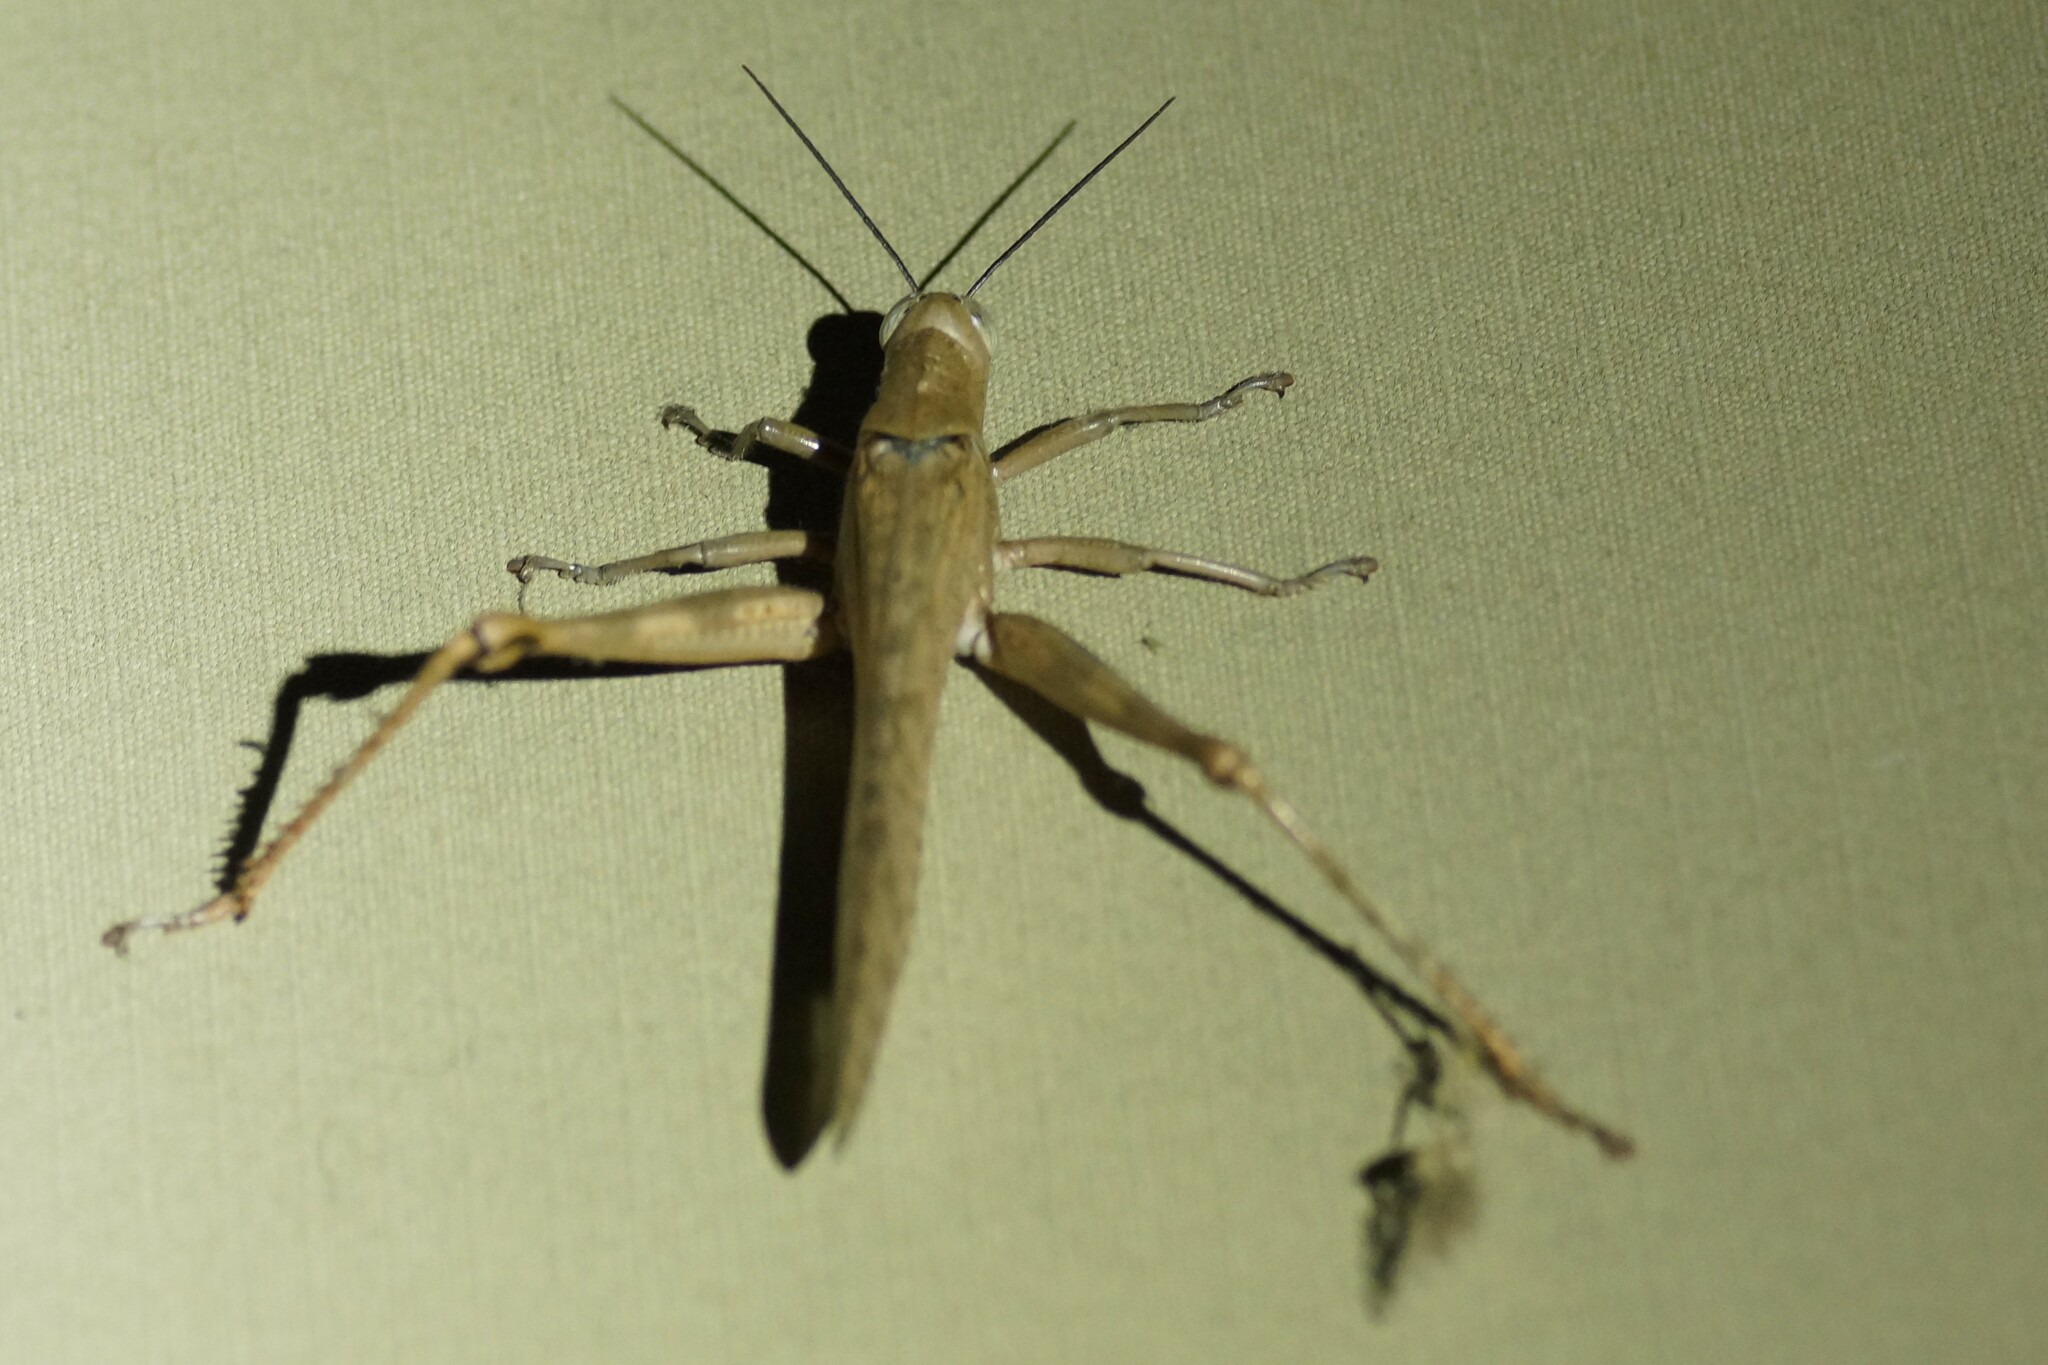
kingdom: Animalia
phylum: Arthropoda
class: Insecta
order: Orthoptera
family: Acrididae
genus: Valanga
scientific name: Valanga irregularis
